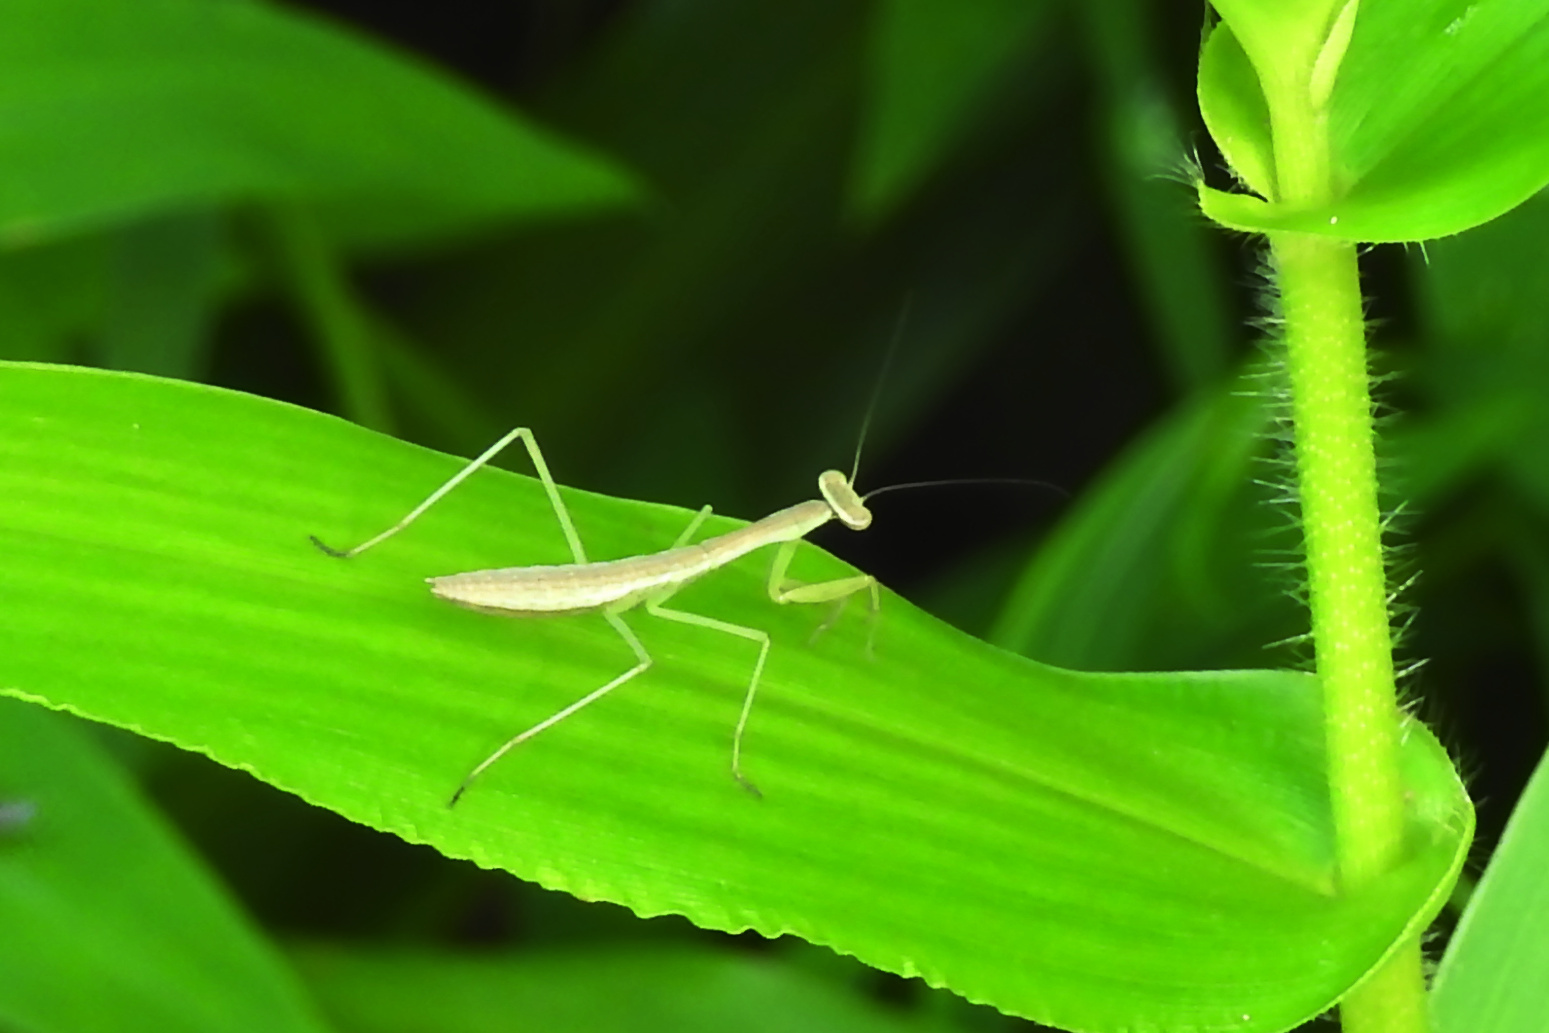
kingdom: Animalia
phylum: Arthropoda
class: Insecta
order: Mantodea
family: Mantidae
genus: Tenodera
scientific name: Tenodera sinensis
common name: Chinese mantis
